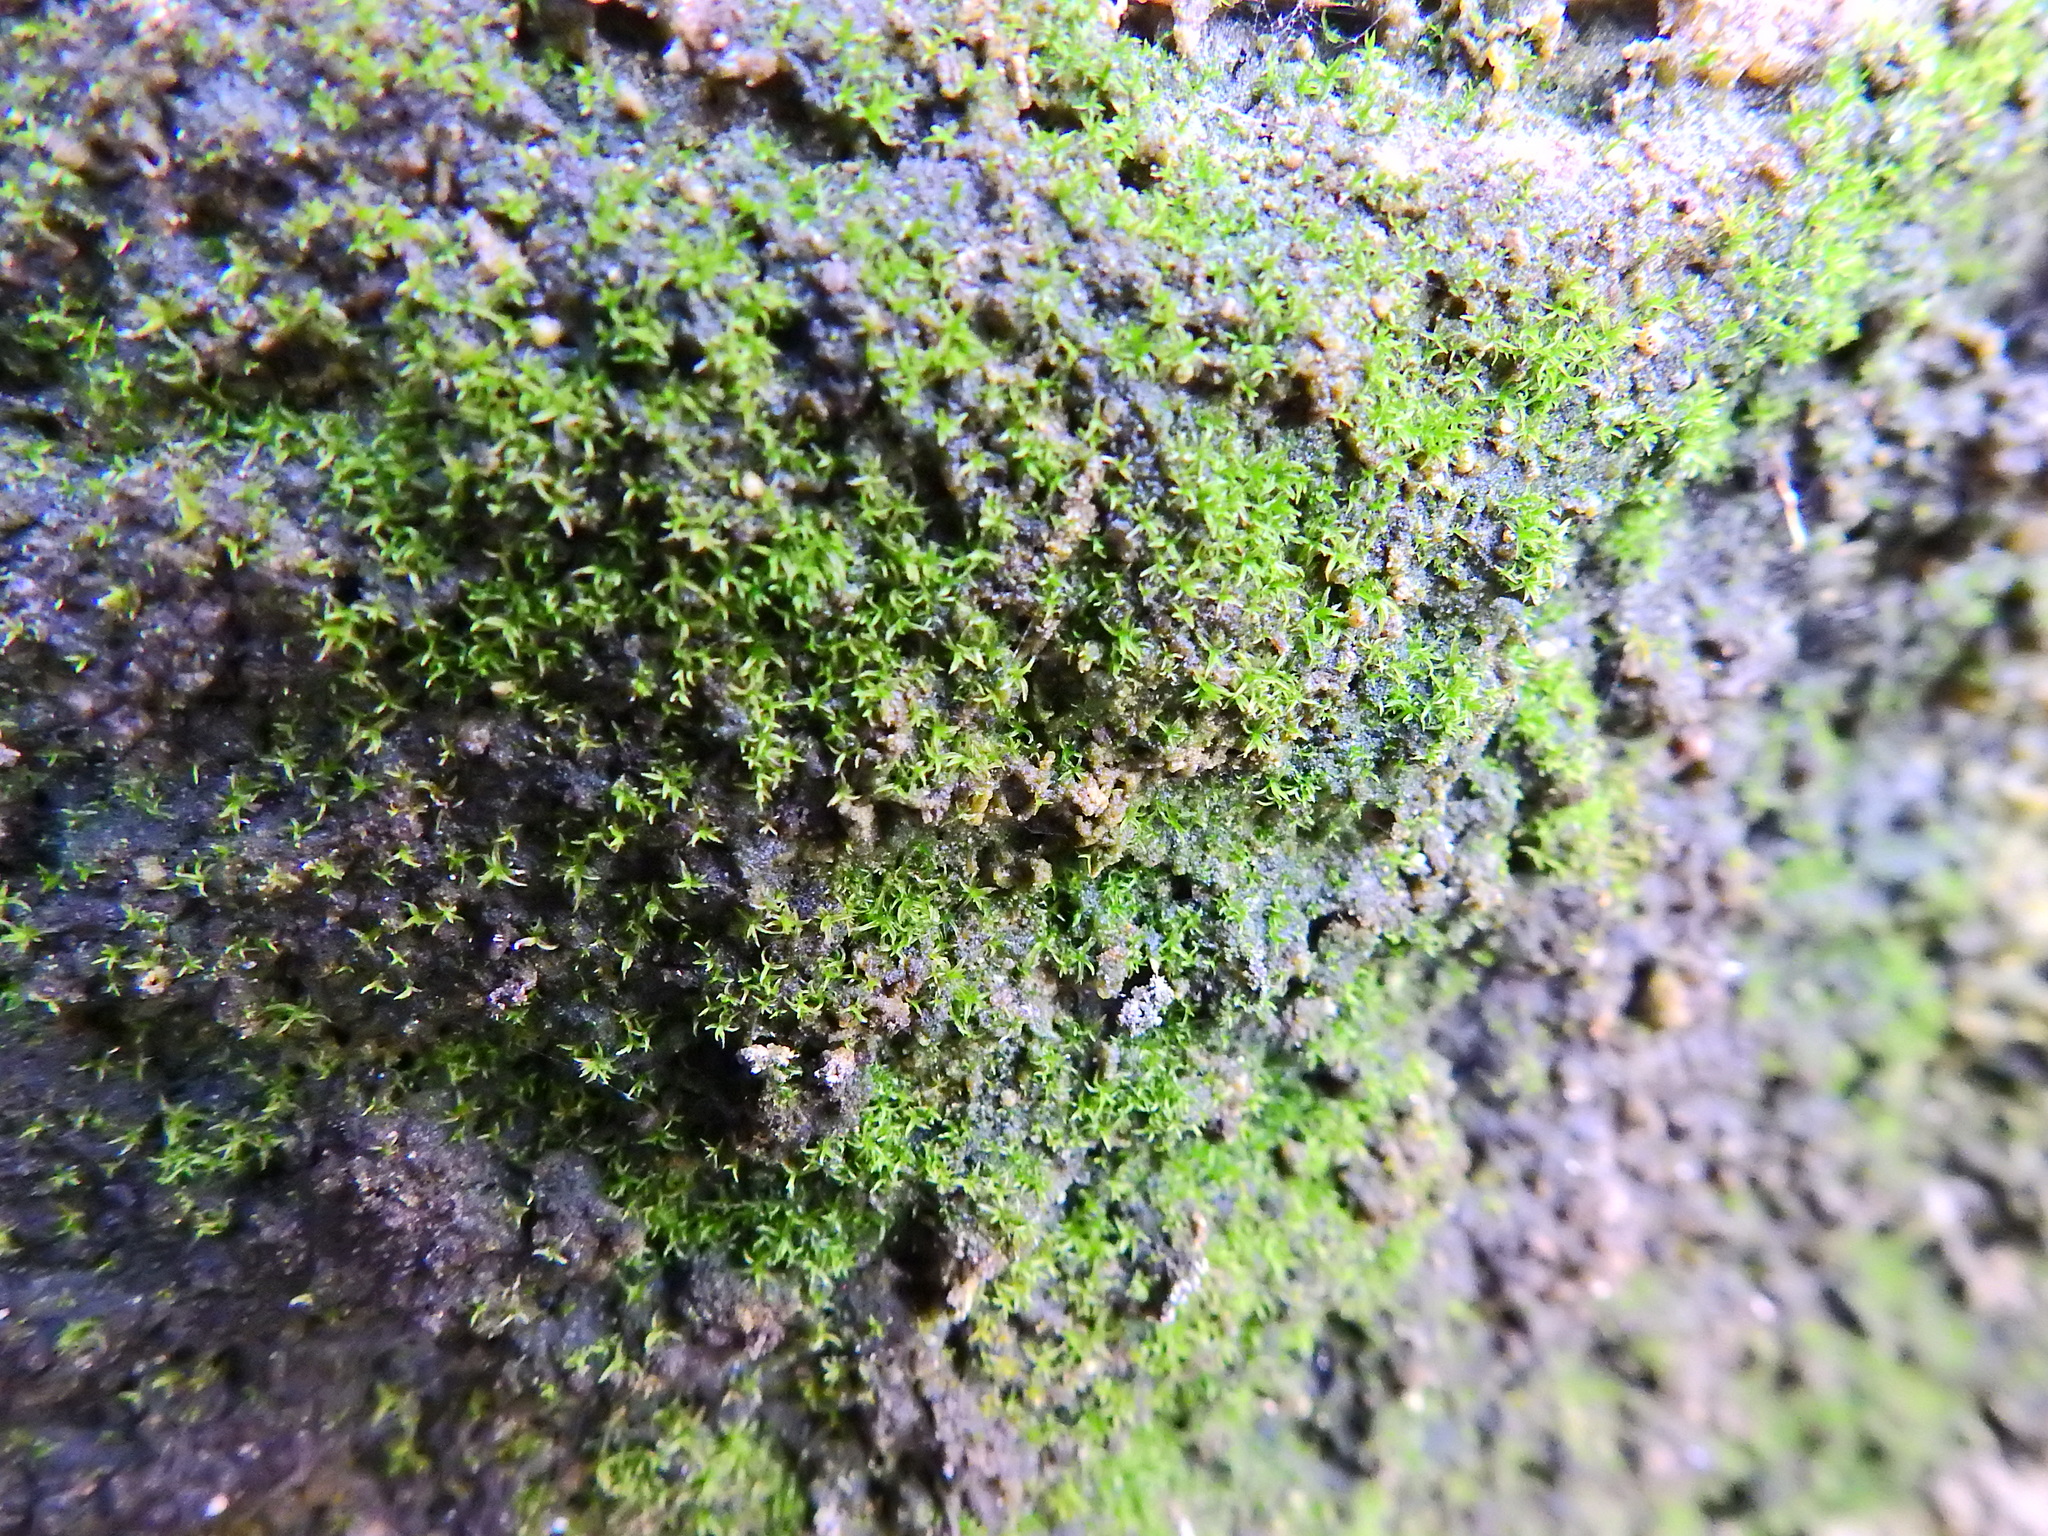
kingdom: Plantae
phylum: Bryophyta
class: Bryopsida
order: Pottiales
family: Pottiaceae
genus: Trichostomopsis
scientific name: Trichostomopsis umbrosa
